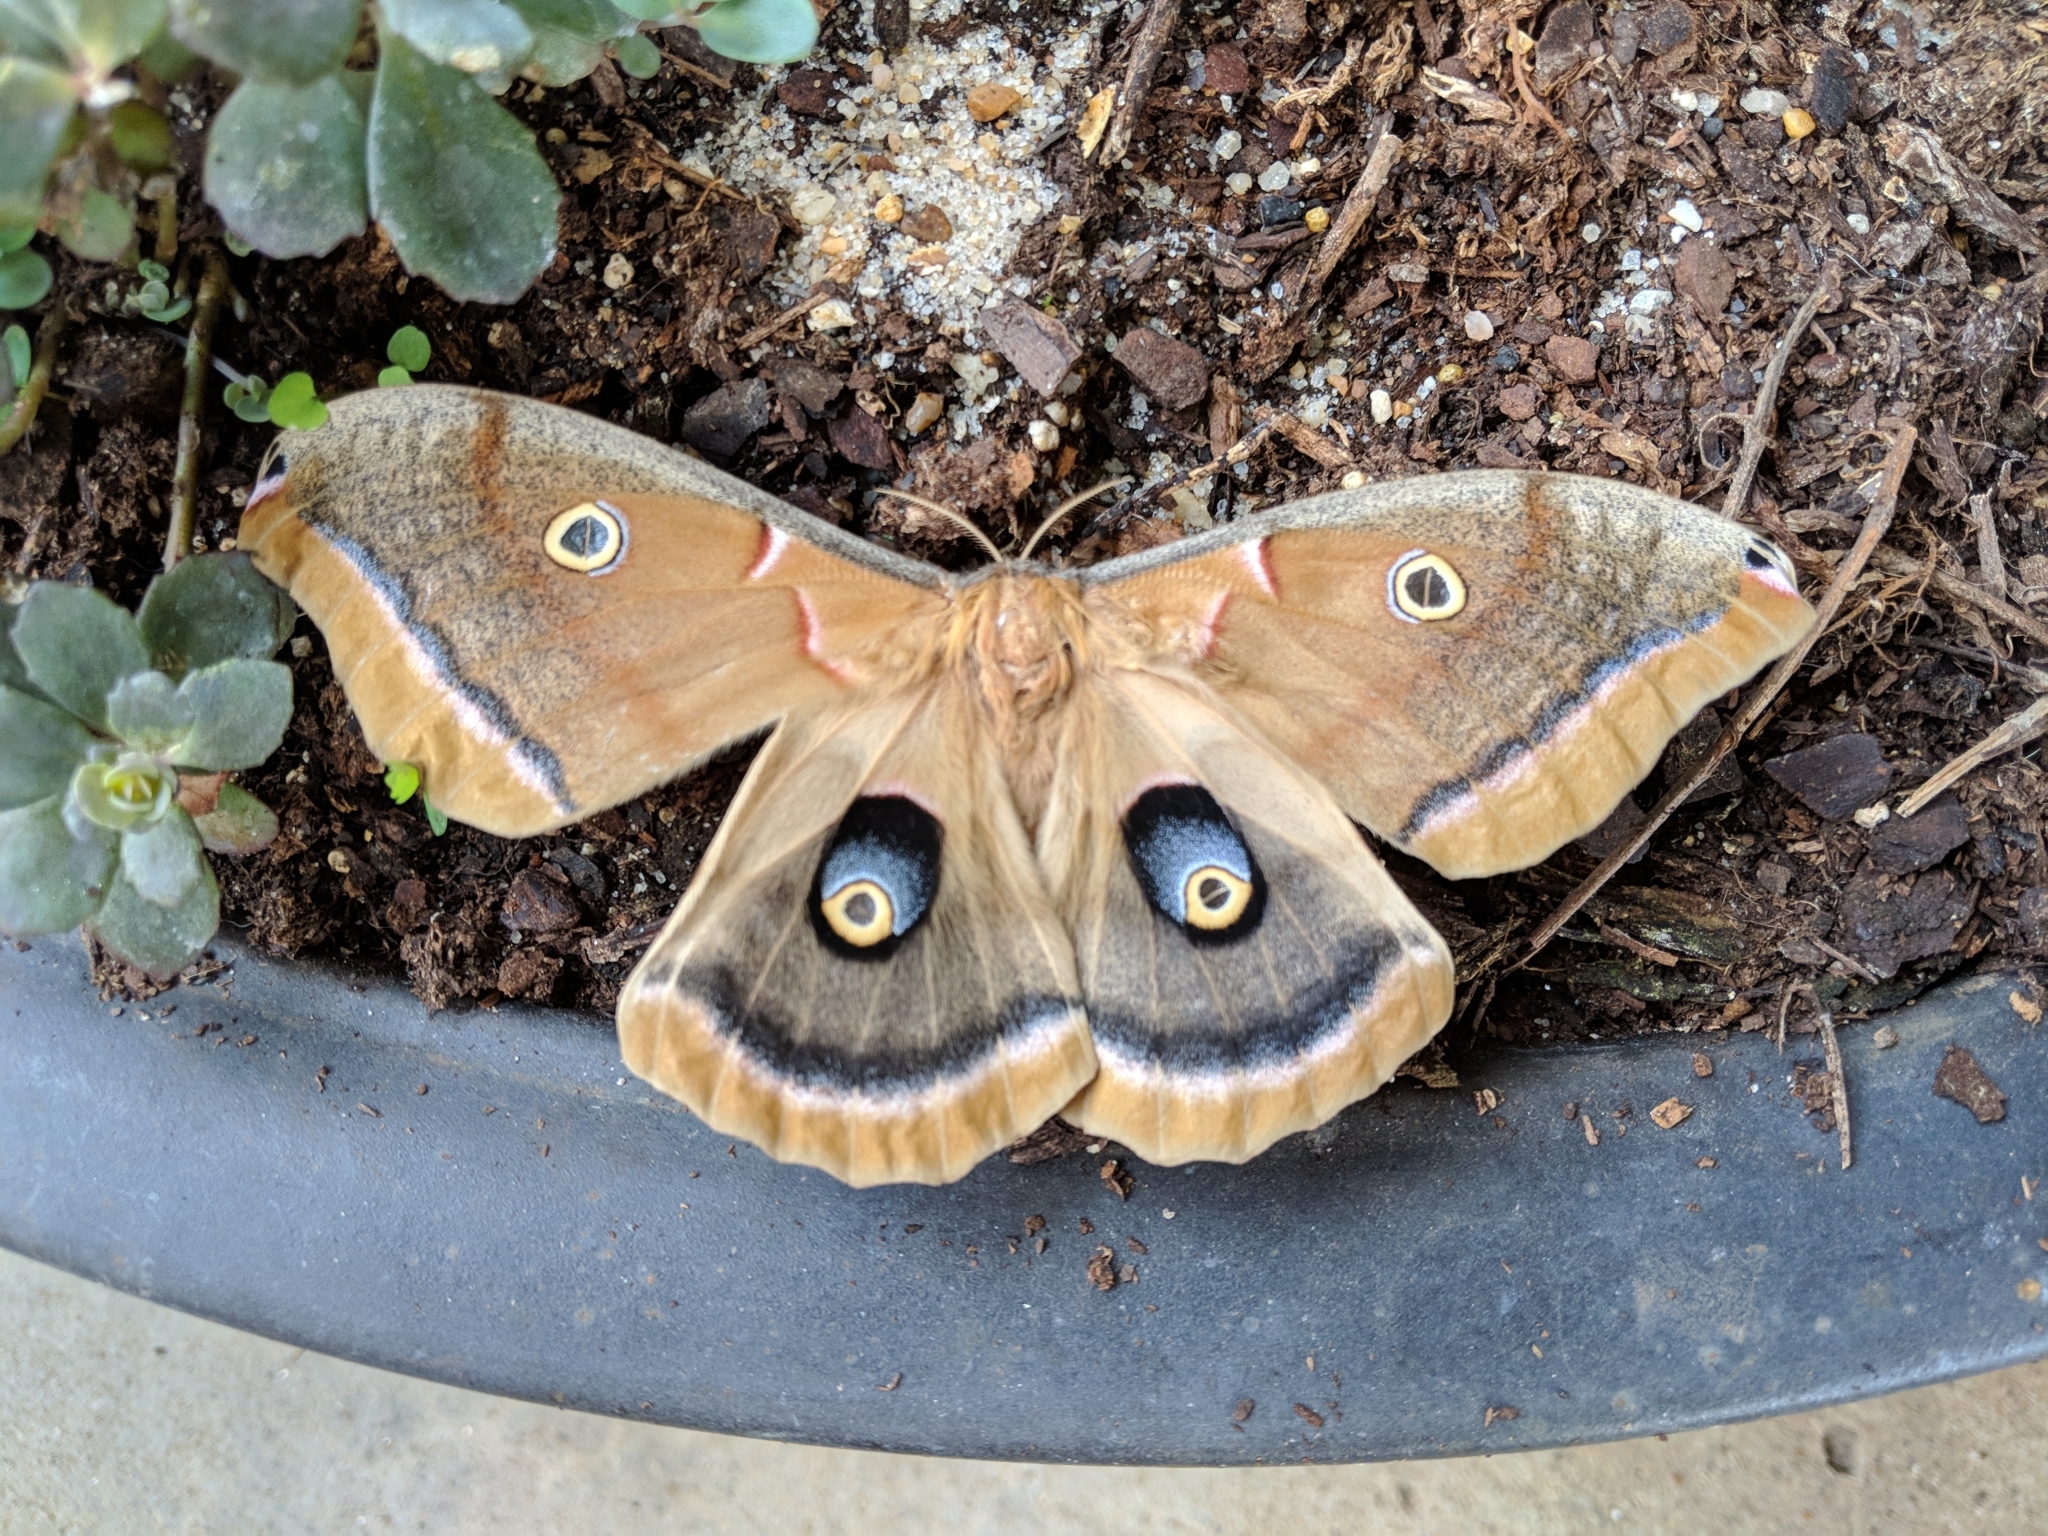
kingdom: Animalia
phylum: Arthropoda
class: Insecta
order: Lepidoptera
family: Saturniidae
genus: Antheraea
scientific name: Antheraea polyphemus
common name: Polyphemus moth
